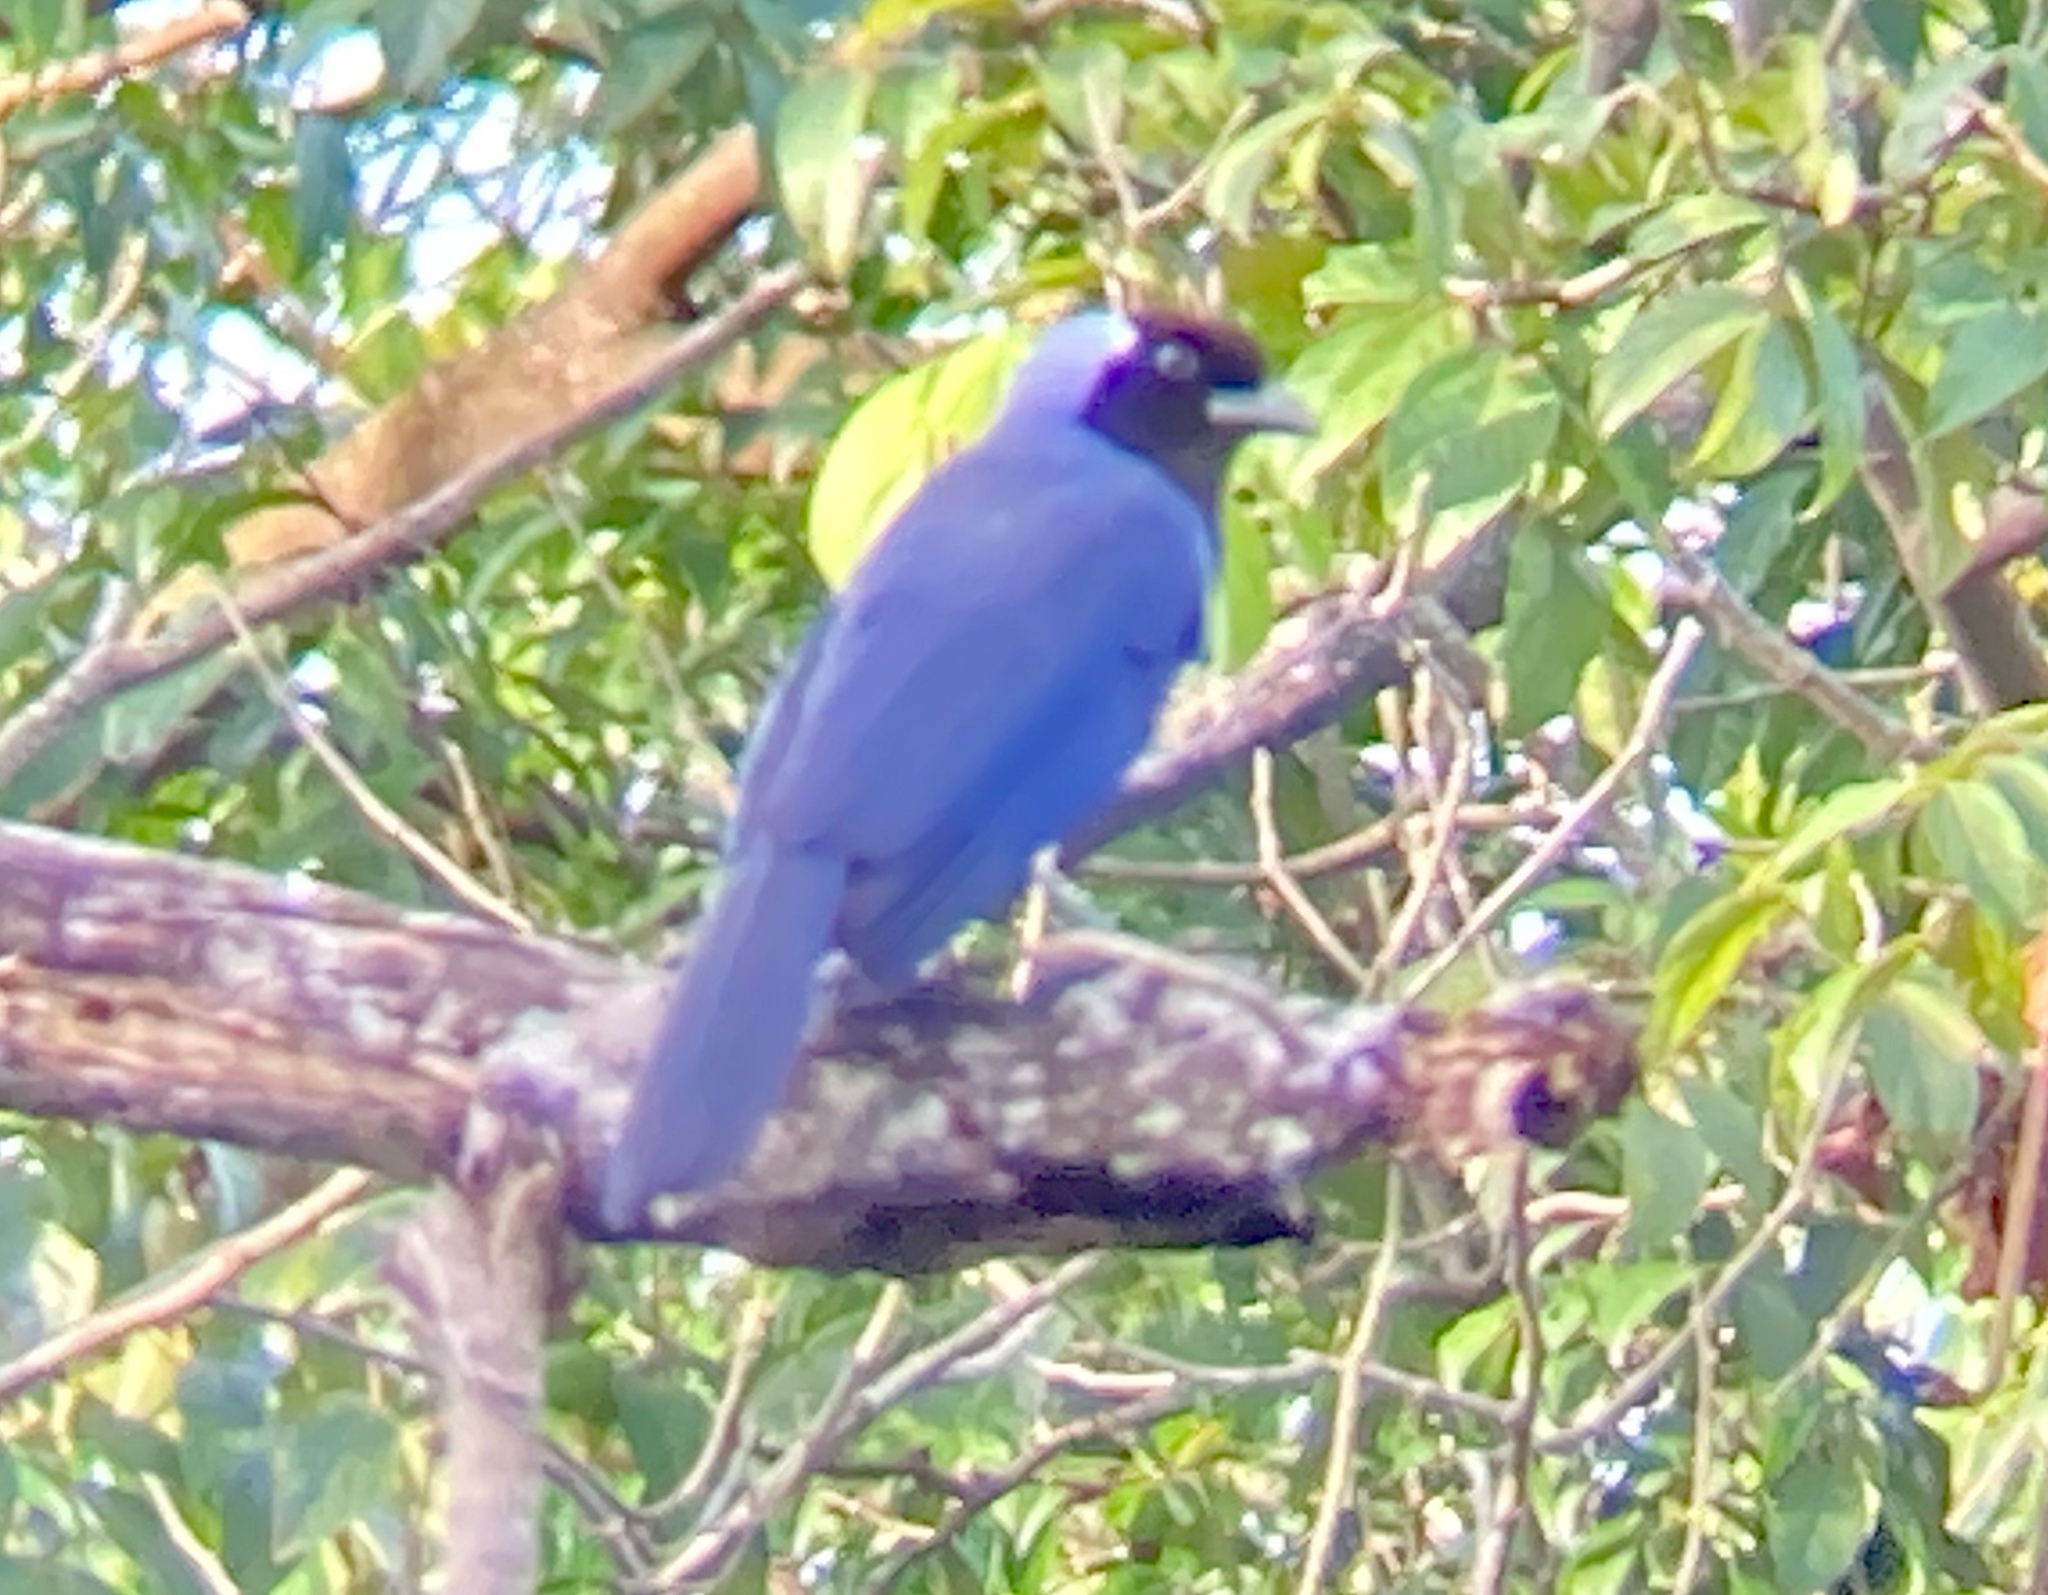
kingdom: Animalia
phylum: Chordata
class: Aves
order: Passeriformes
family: Corvidae
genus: Cyanocorax
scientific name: Cyanocorax violaceus
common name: Violaceous jay
